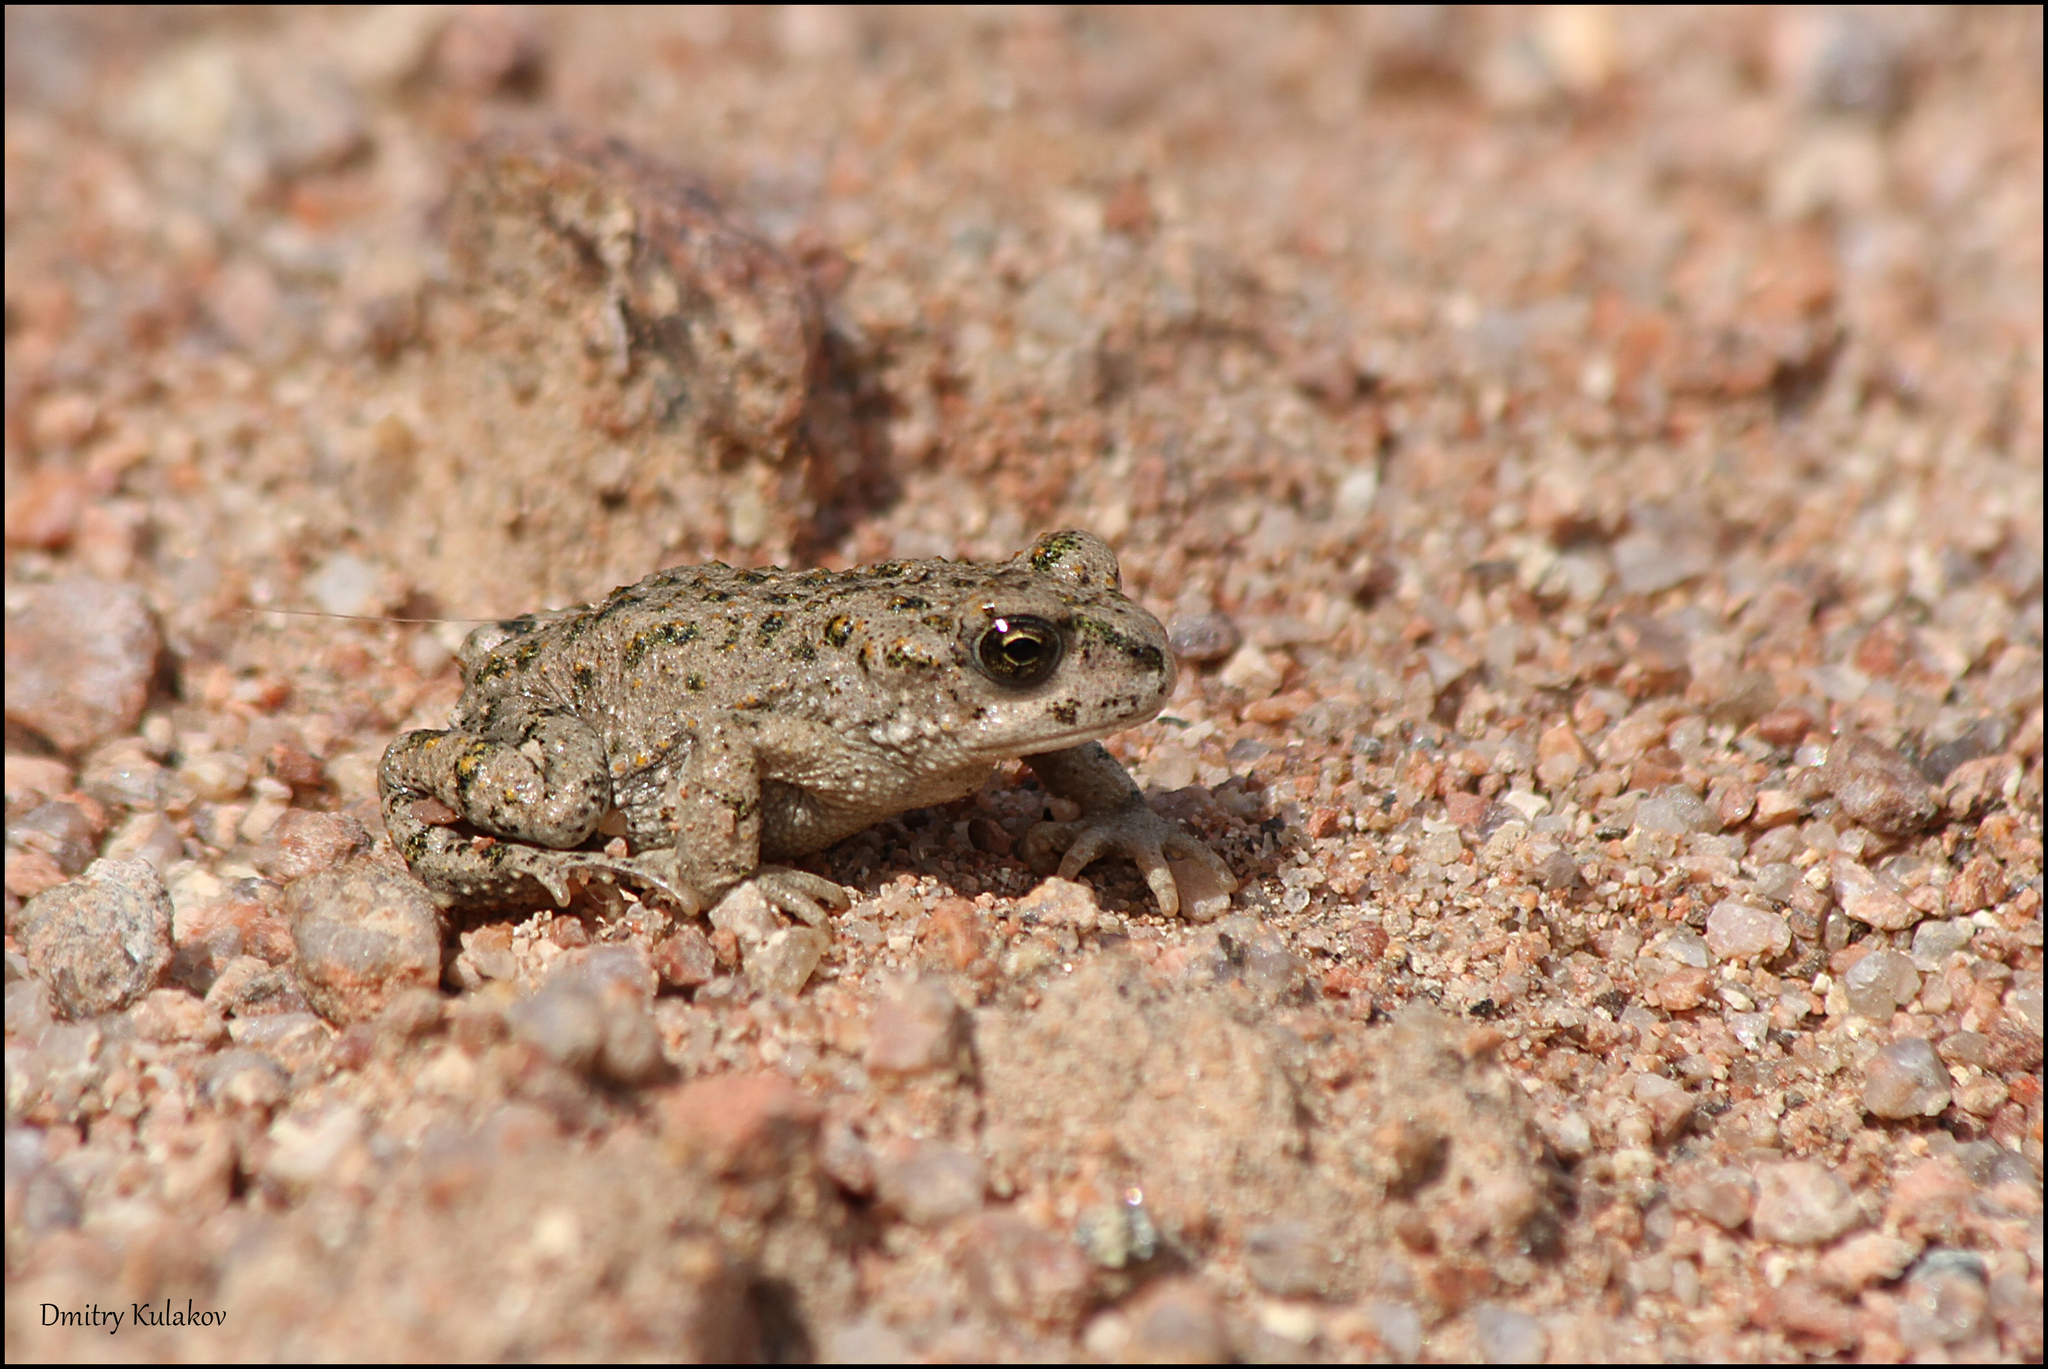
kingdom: Animalia
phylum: Chordata
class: Amphibia
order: Anura
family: Bufonidae
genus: Bufotes
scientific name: Bufotes pewzowi
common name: Xinjiang toad
